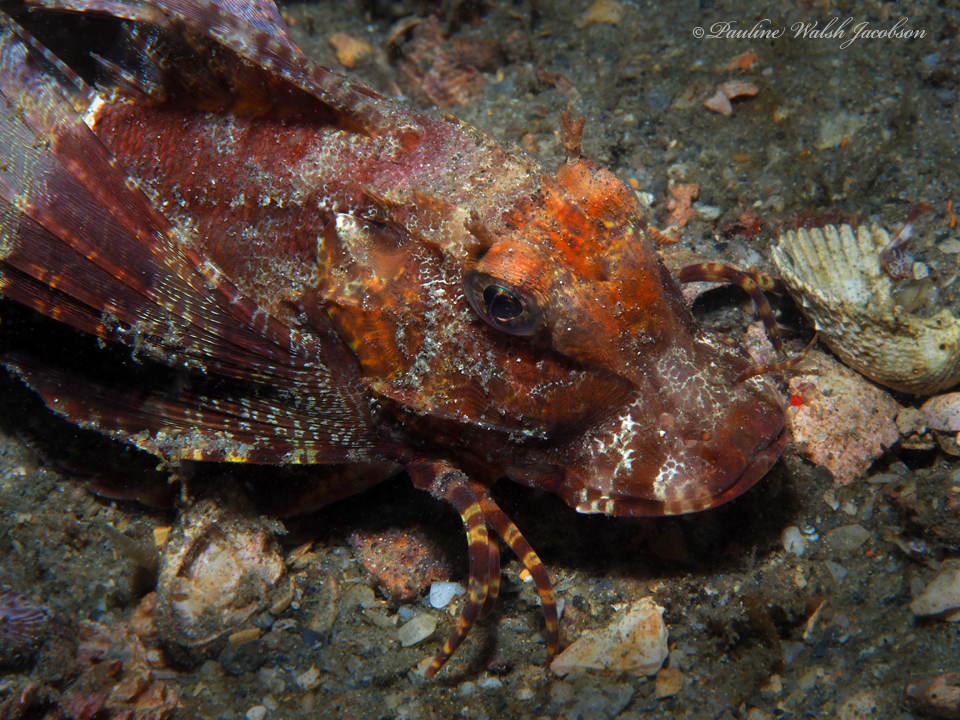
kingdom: Animalia
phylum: Chordata
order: Scorpaeniformes
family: Triglidae
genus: Prionotus
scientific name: Prionotus ophryas
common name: Bandtail searobin
